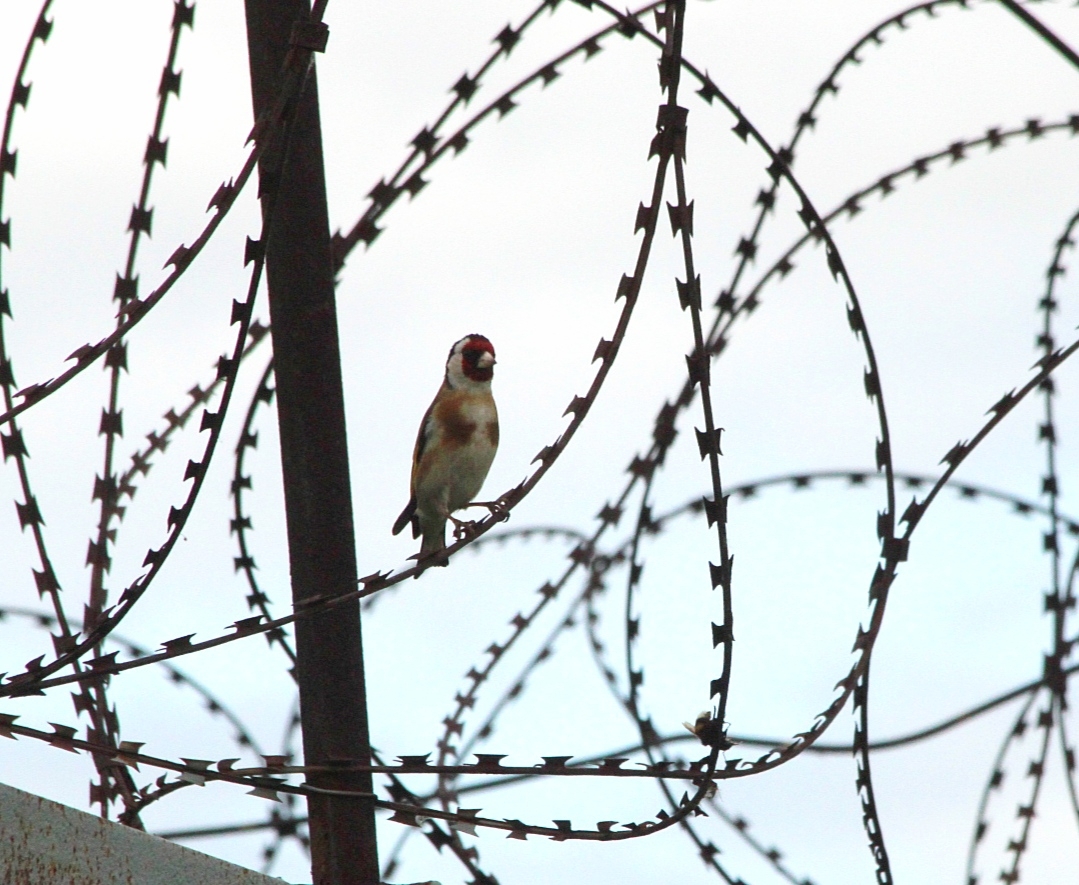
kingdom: Animalia
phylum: Chordata
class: Aves
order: Passeriformes
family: Fringillidae
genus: Carduelis
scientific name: Carduelis carduelis
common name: European goldfinch
